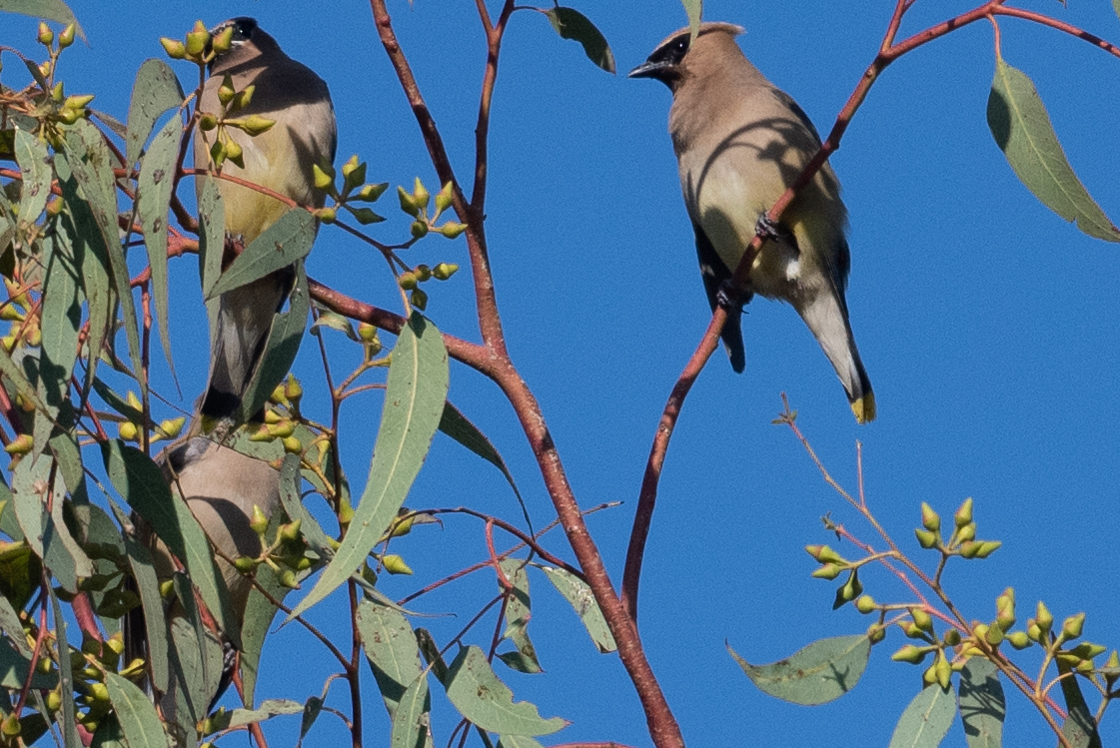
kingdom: Animalia
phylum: Chordata
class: Aves
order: Passeriformes
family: Bombycillidae
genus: Bombycilla
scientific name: Bombycilla cedrorum
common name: Cedar waxwing
